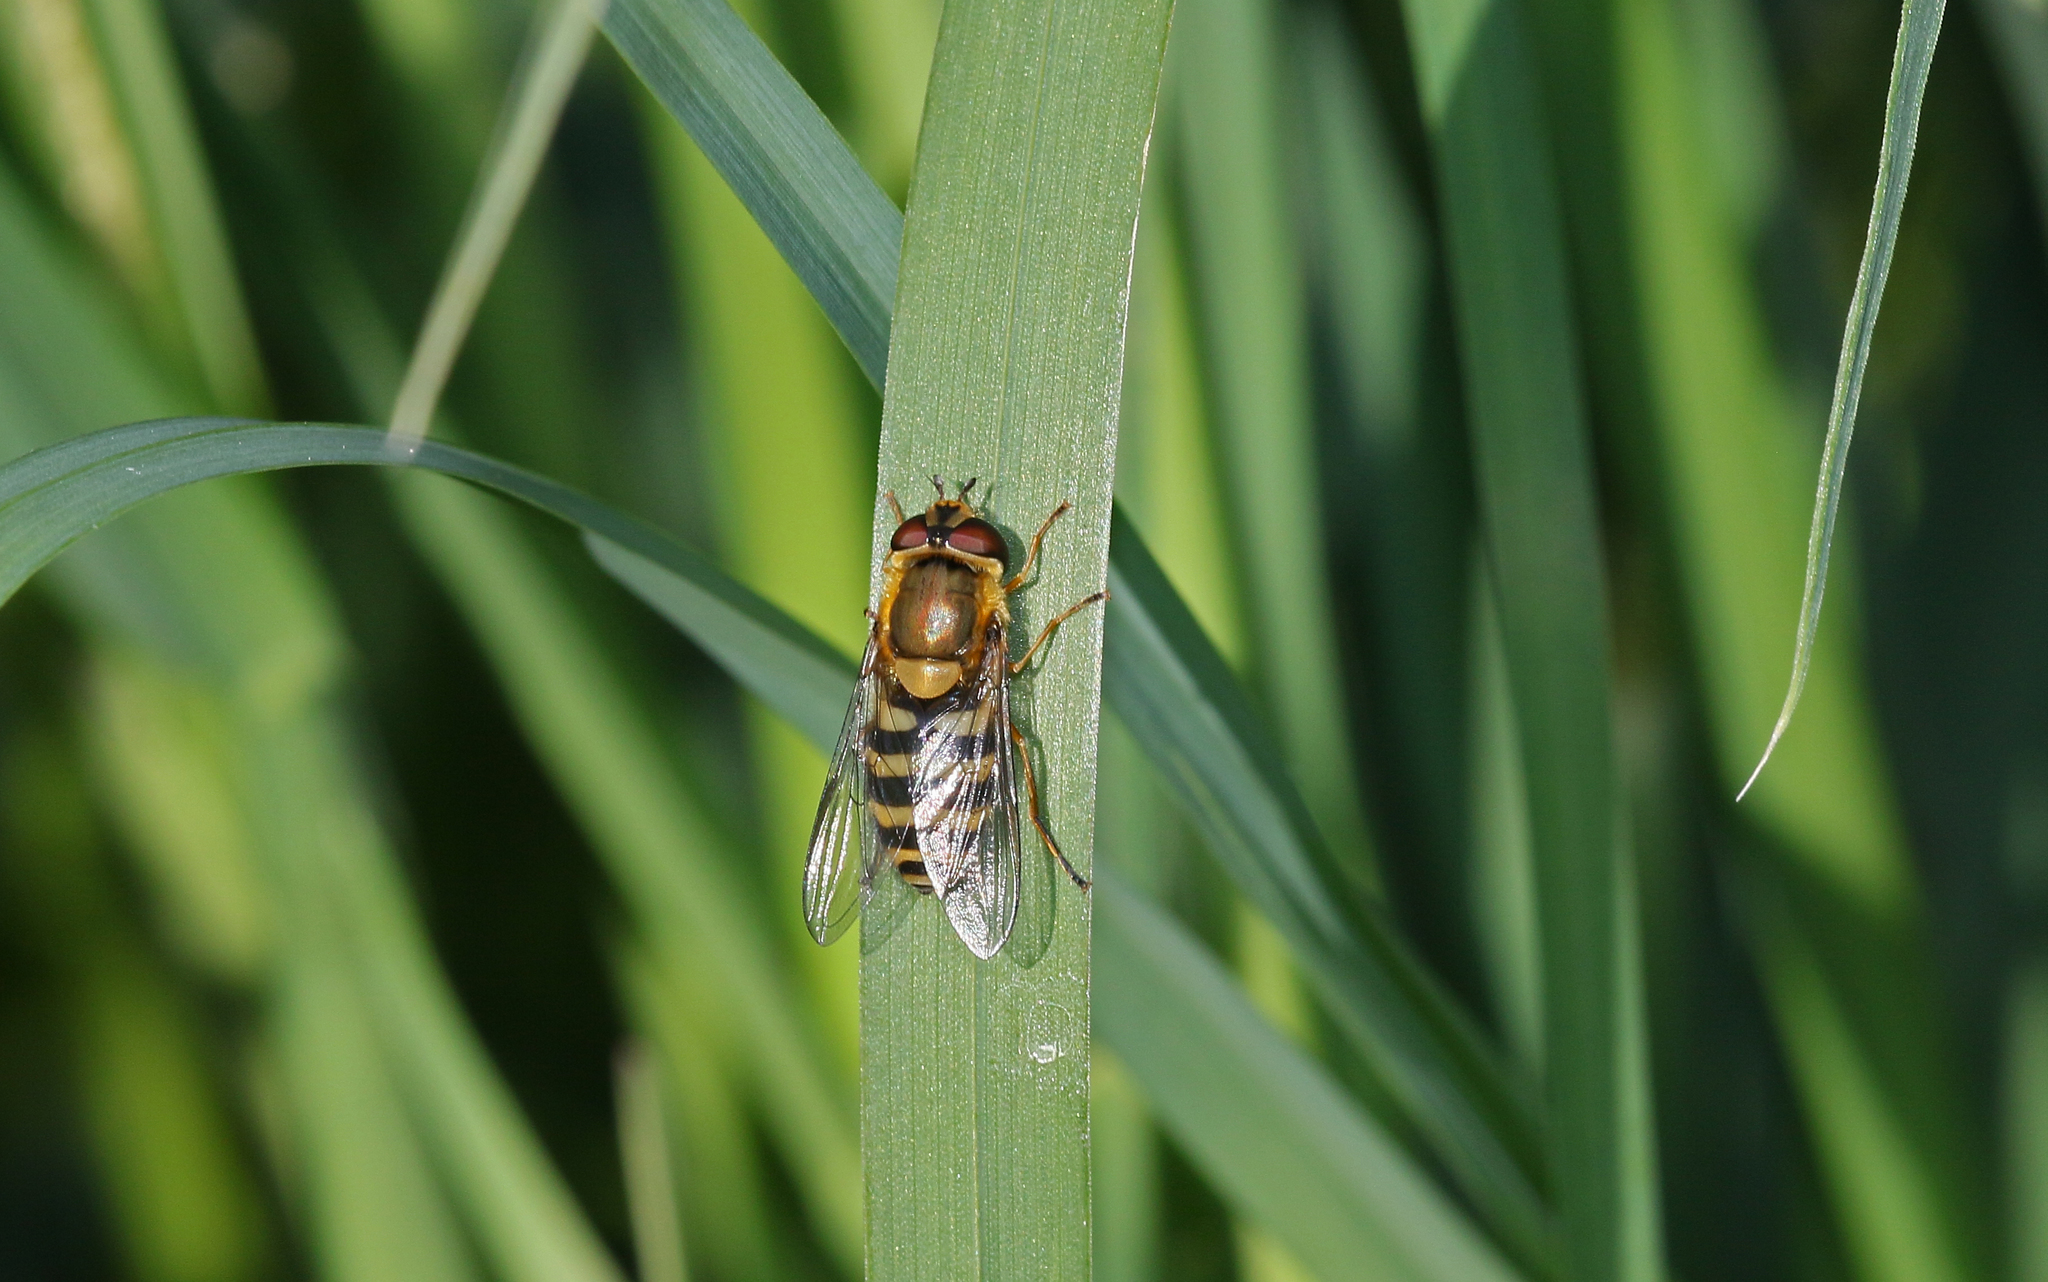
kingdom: Animalia
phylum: Arthropoda
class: Insecta
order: Diptera
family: Syrphidae
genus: Syrphus
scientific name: Syrphus
